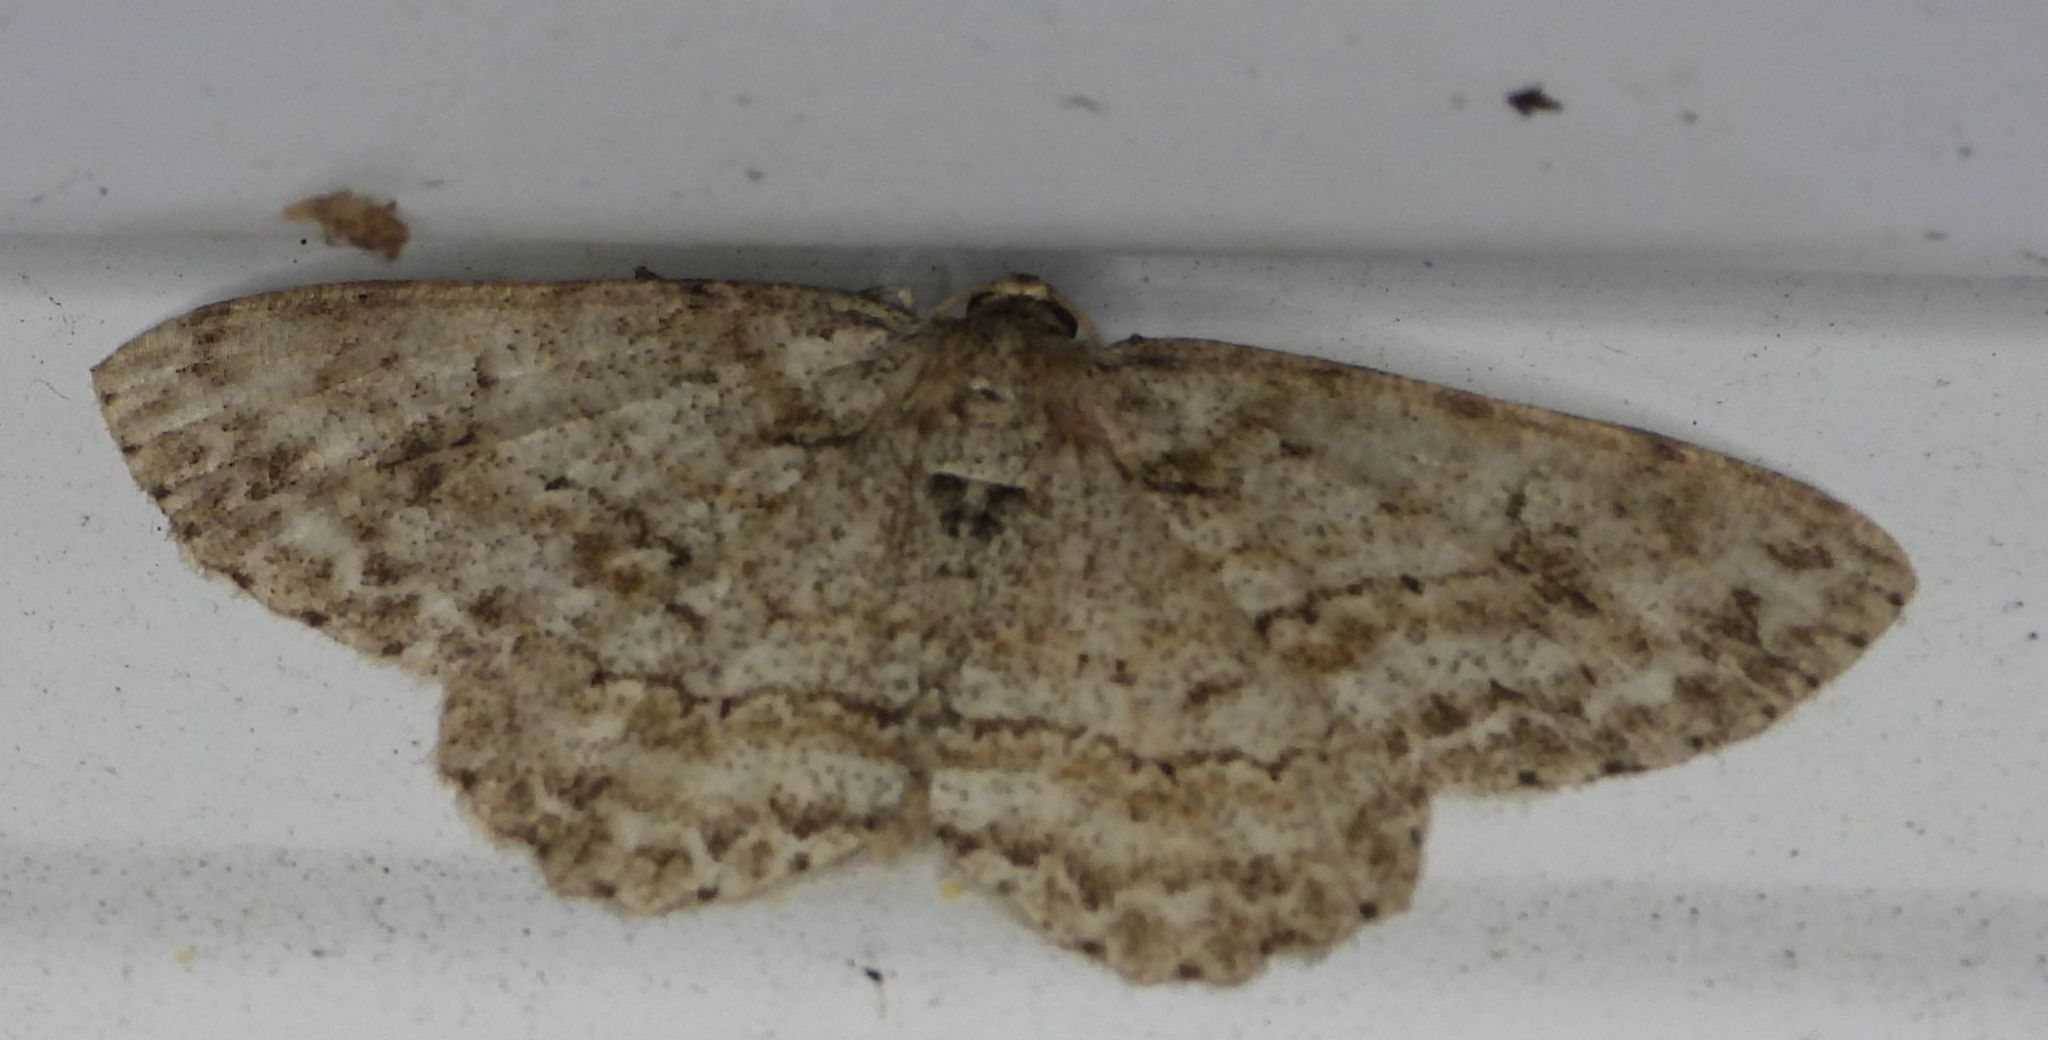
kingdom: Animalia
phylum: Arthropoda
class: Insecta
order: Lepidoptera
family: Geometridae
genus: Ectropis
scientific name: Ectropis crepuscularia
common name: Engrailed
